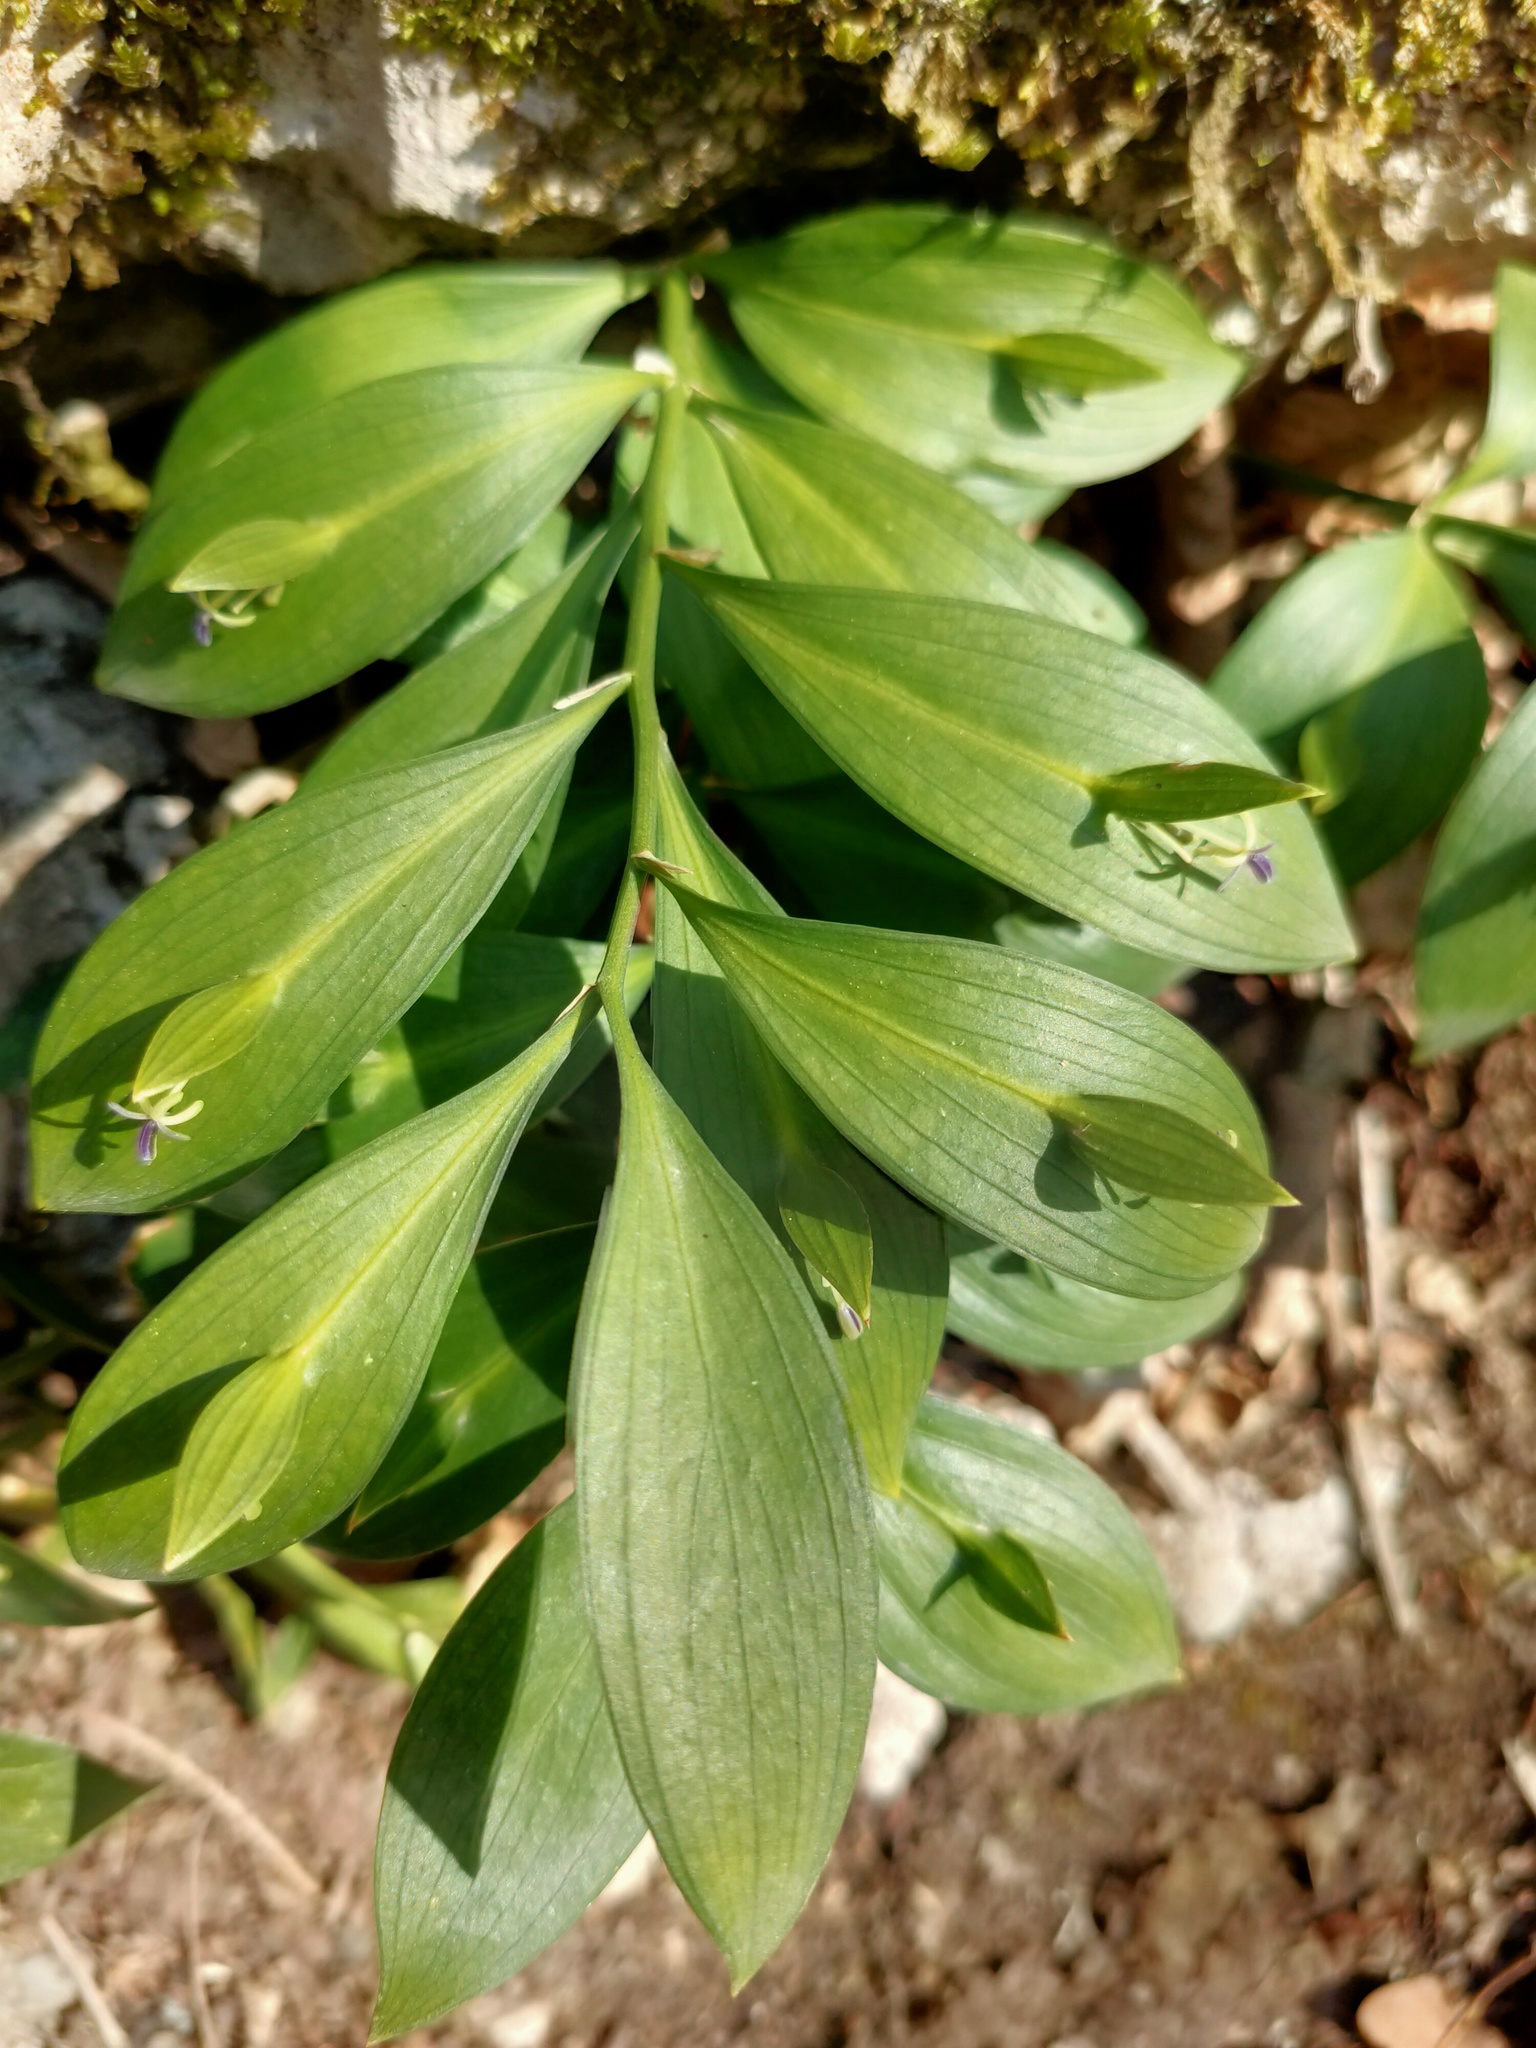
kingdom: Plantae
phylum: Tracheophyta
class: Liliopsida
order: Asparagales
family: Asparagaceae
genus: Ruscus
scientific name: Ruscus hypoglossum
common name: Spineless butcher's-broom
